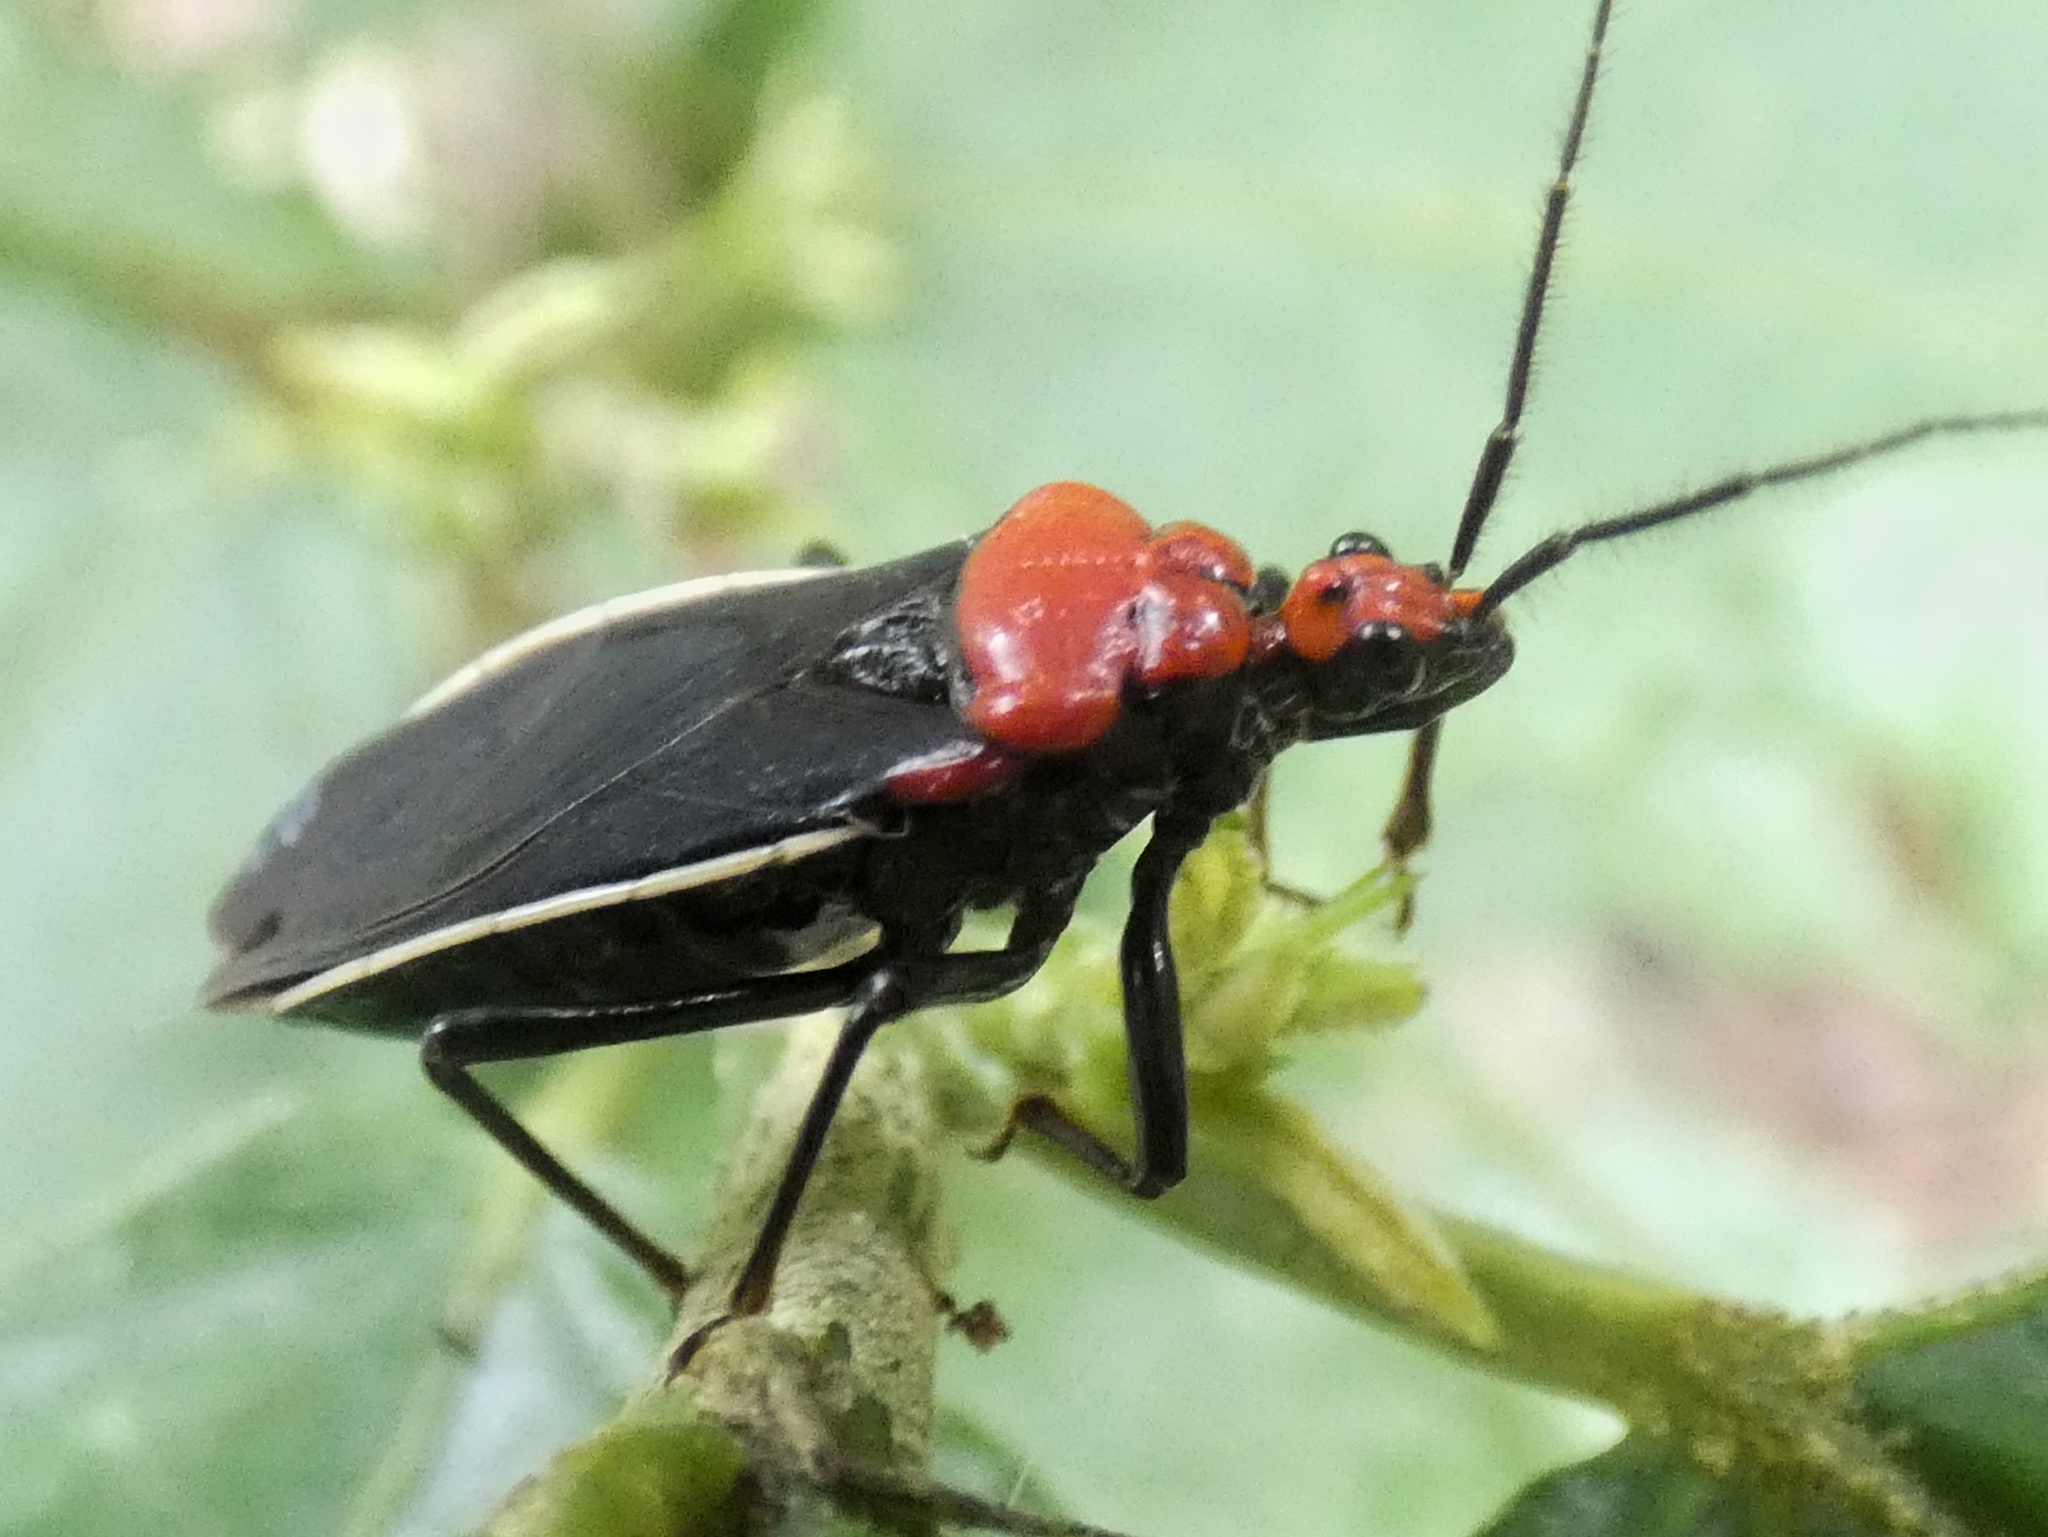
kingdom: Animalia
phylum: Arthropoda
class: Insecta
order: Hemiptera
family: Reduviidae
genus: Rhiginia
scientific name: Rhiginia bimaculata
